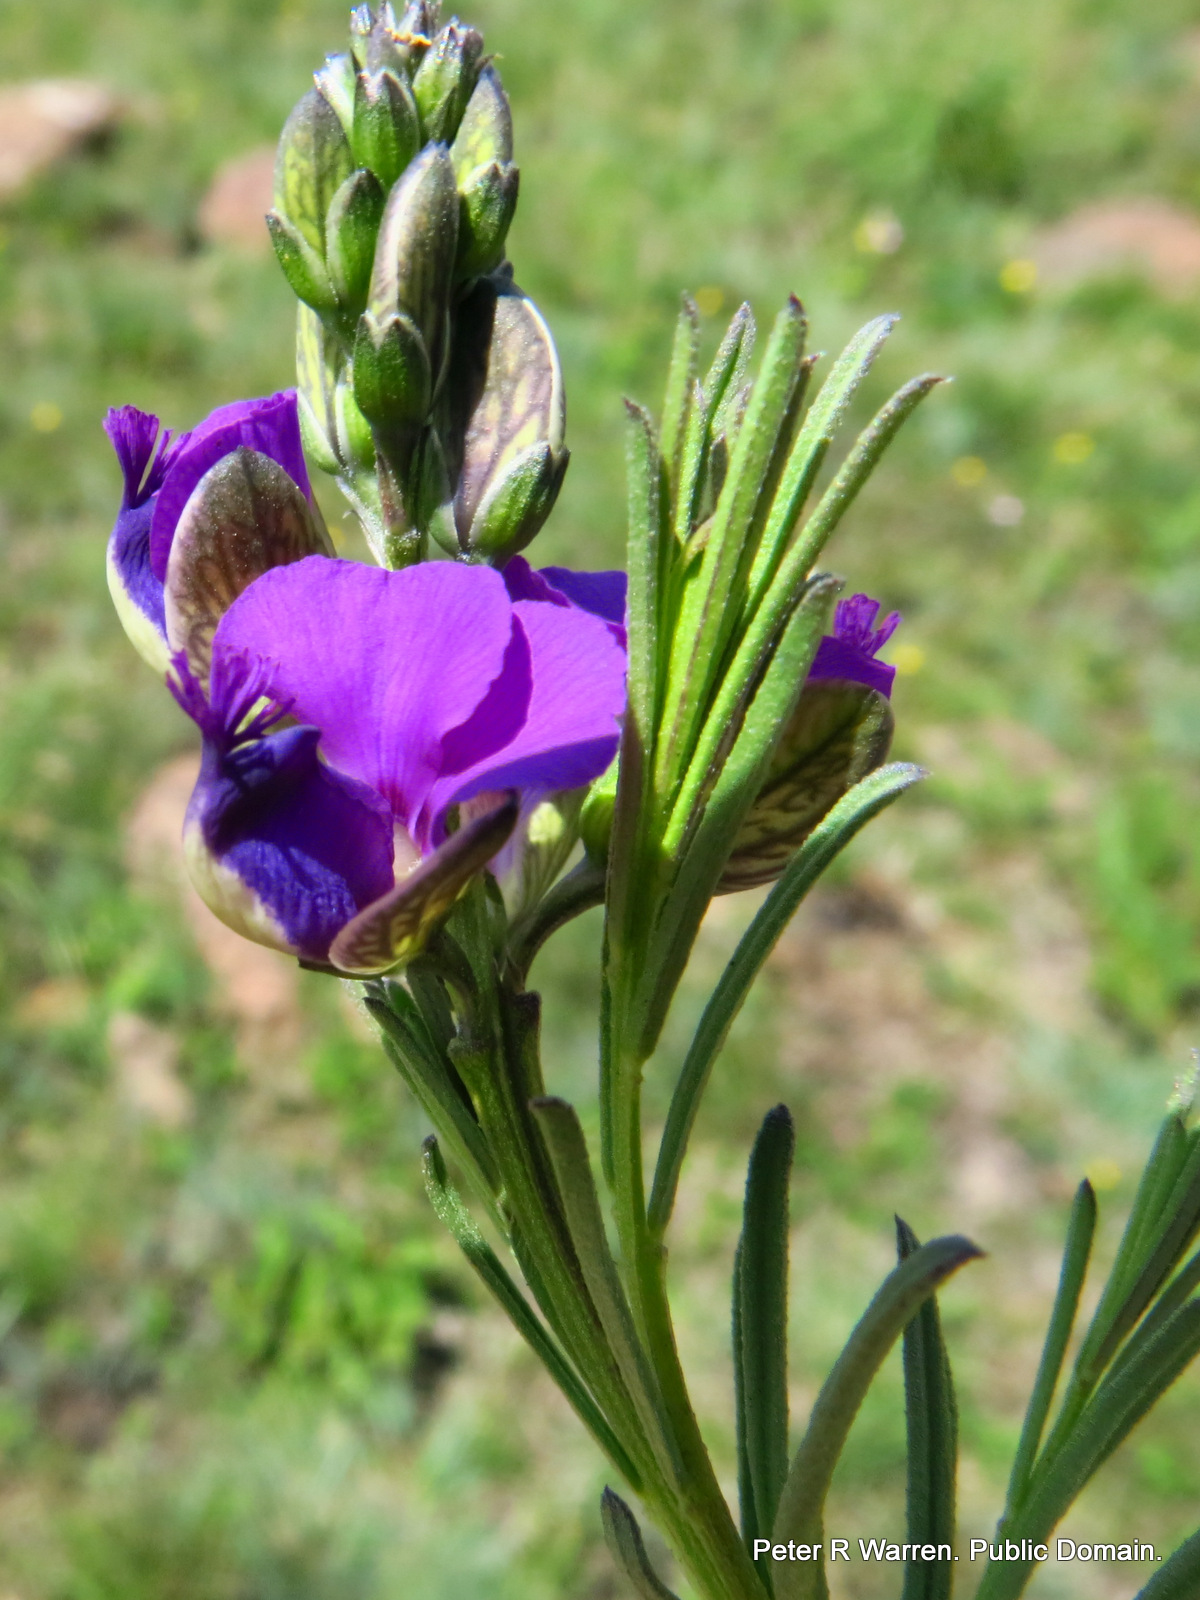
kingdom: Plantae
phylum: Tracheophyta
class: Magnoliopsida
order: Fabales
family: Polygalaceae
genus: Polygala
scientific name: Polygala gracilenta
